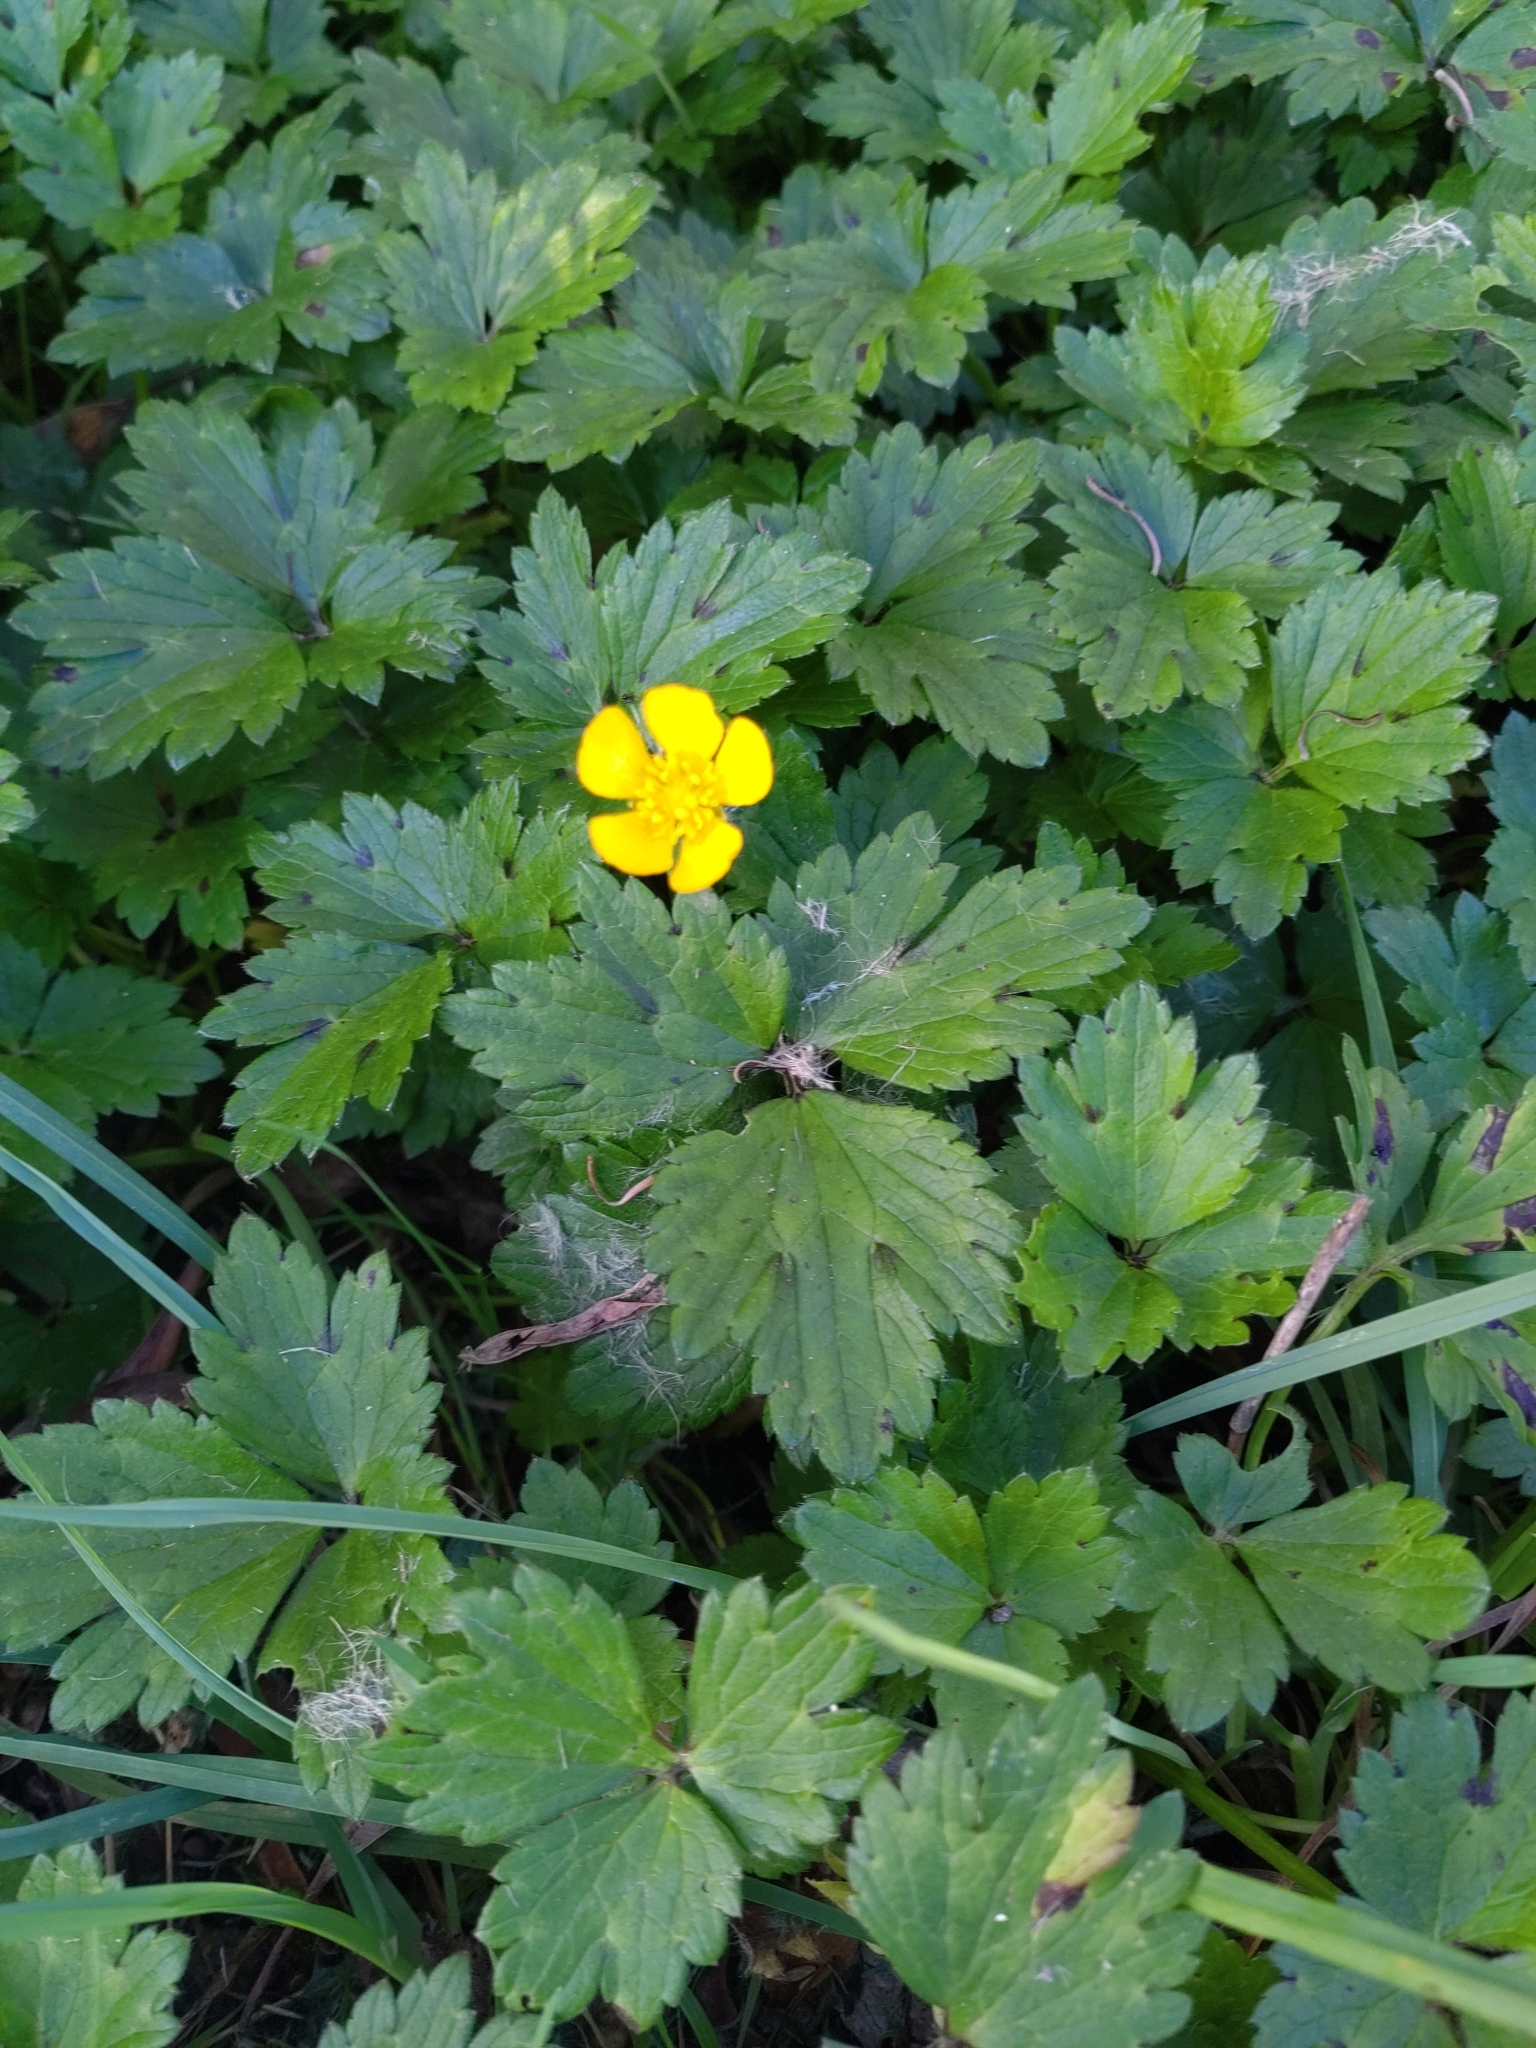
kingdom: Plantae
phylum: Tracheophyta
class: Magnoliopsida
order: Ranunculales
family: Ranunculaceae
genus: Ranunculus
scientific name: Ranunculus repens
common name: Creeping buttercup
